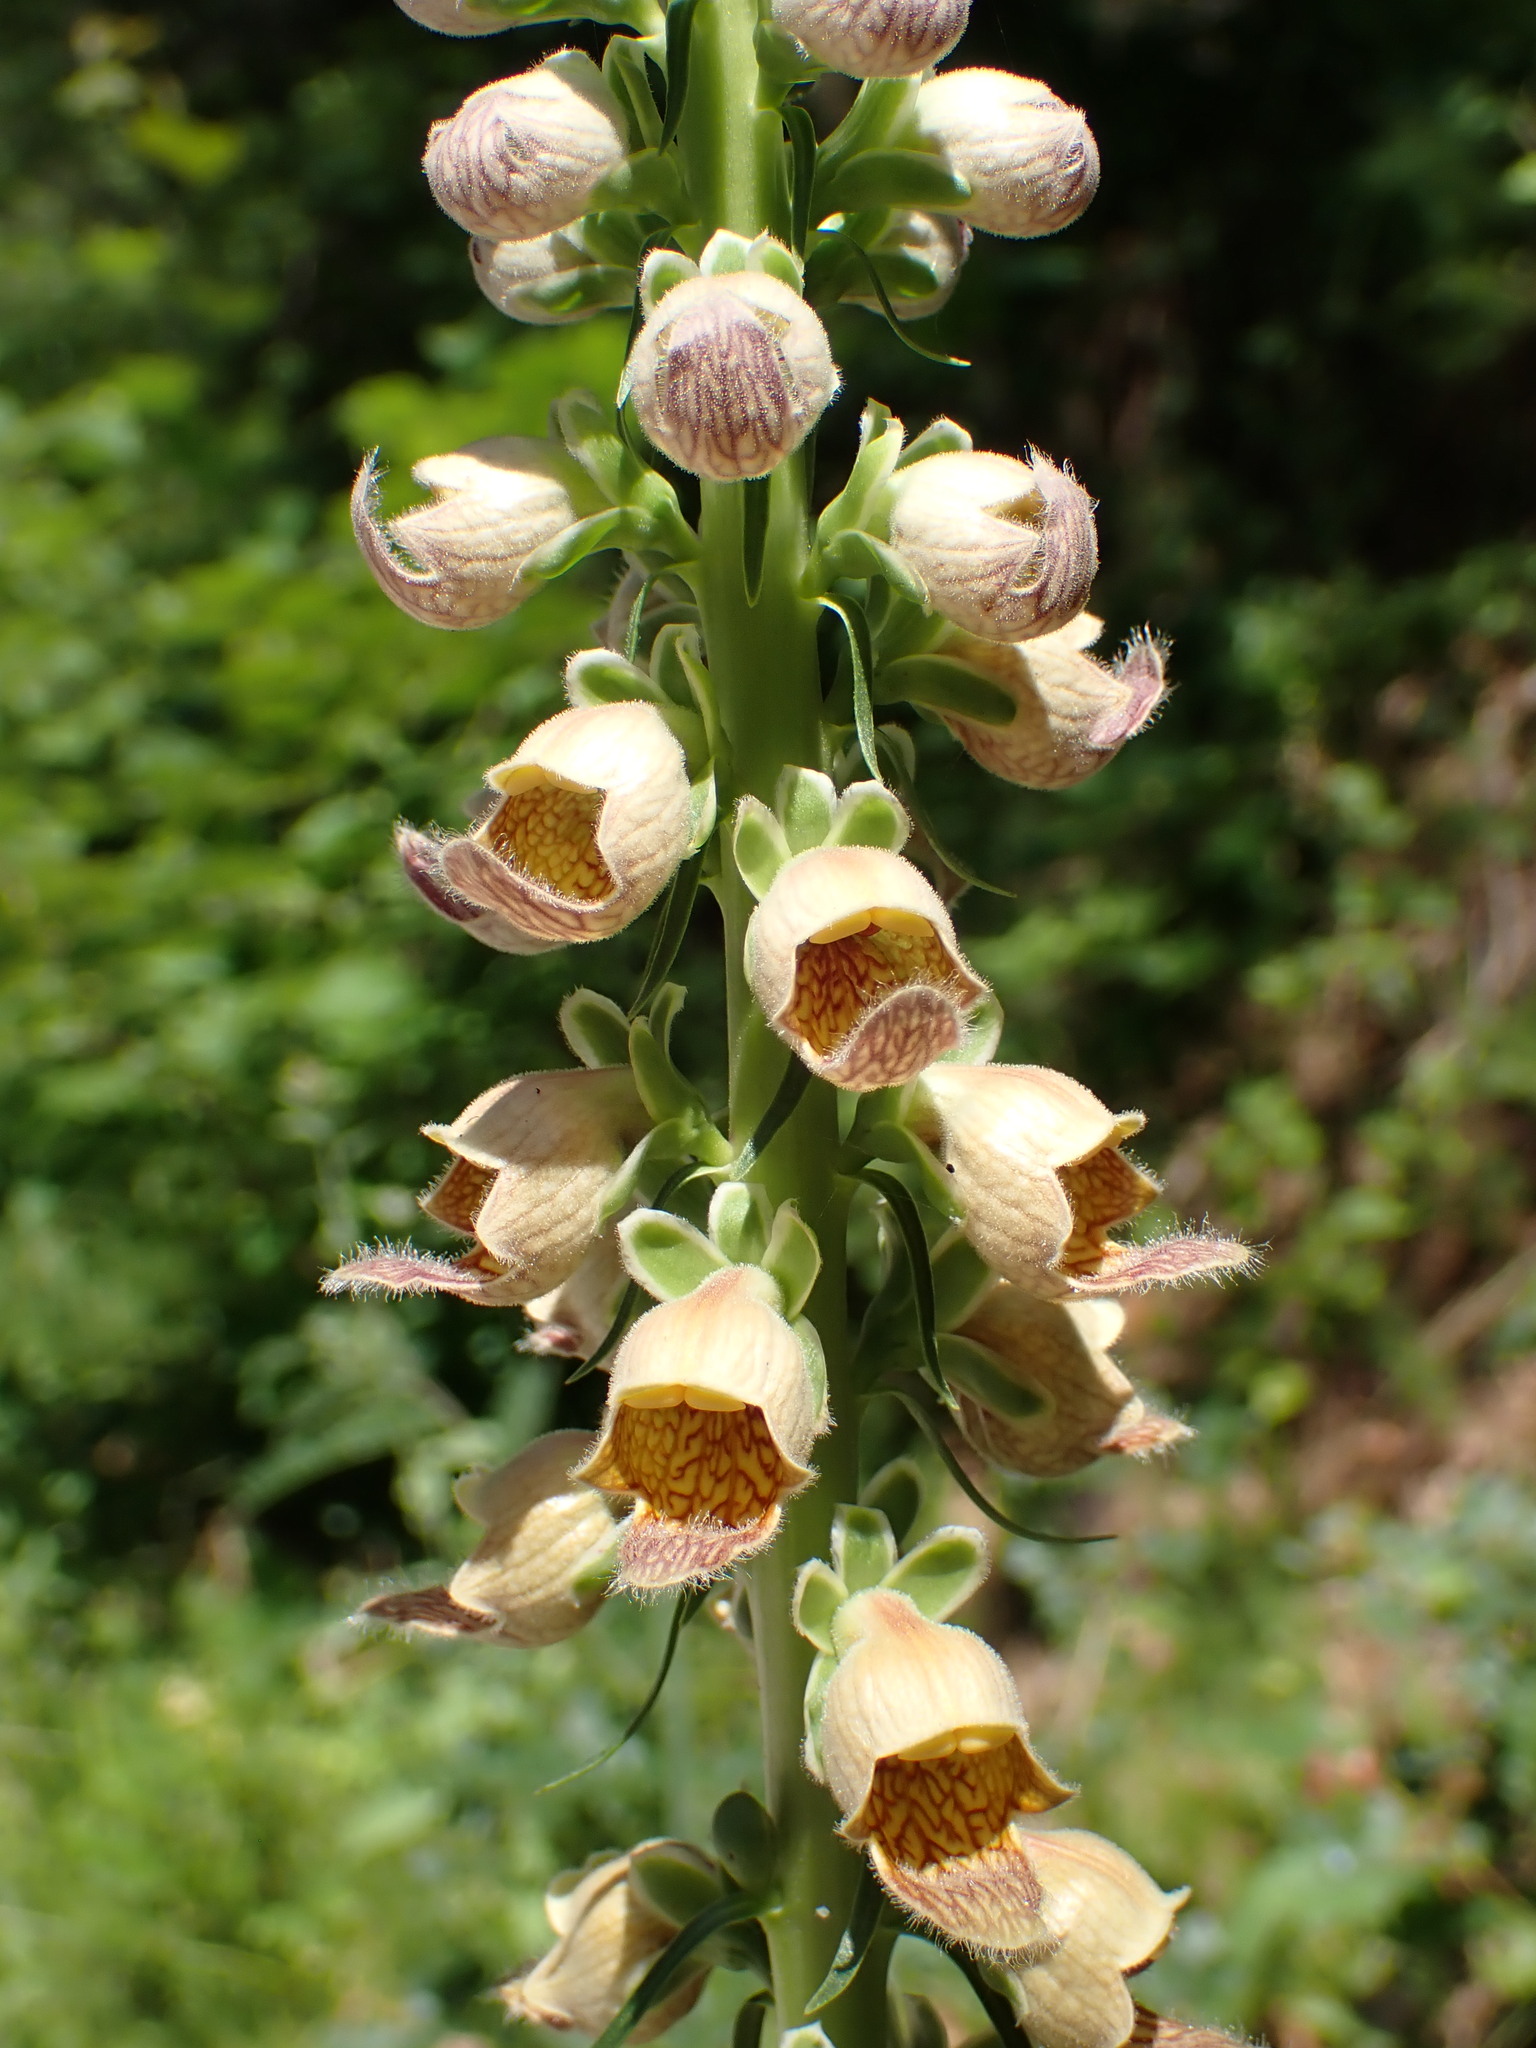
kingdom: Plantae
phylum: Tracheophyta
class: Magnoliopsida
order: Lamiales
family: Plantaginaceae
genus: Digitalis
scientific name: Digitalis ferruginea
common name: Rusty foxglove
